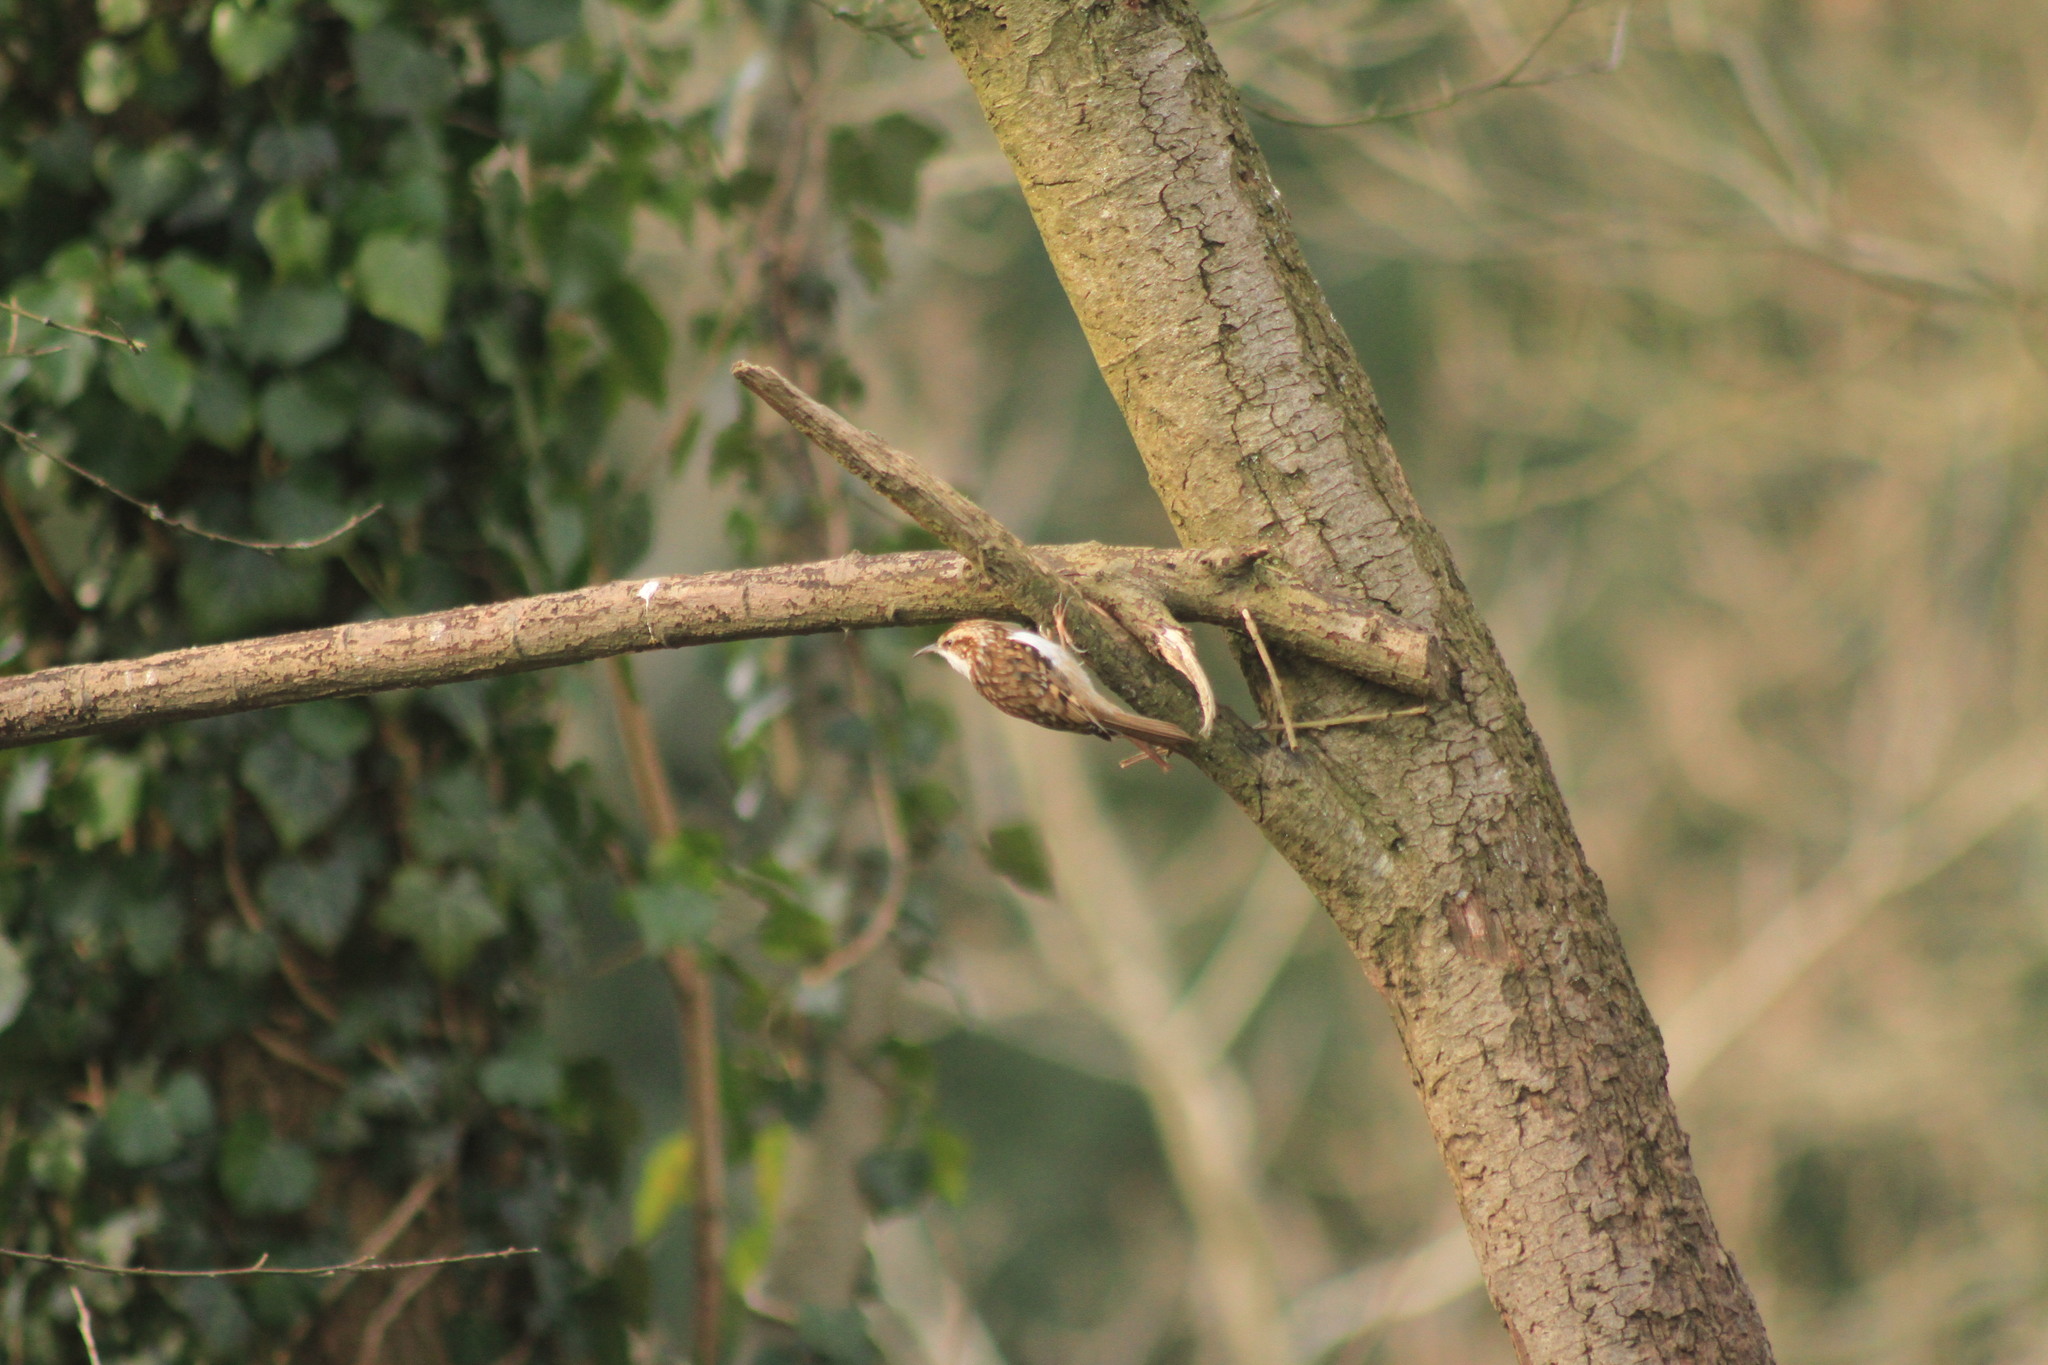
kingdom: Animalia
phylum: Chordata
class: Aves
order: Passeriformes
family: Certhiidae
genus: Certhia
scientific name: Certhia familiaris
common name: Eurasian treecreeper
